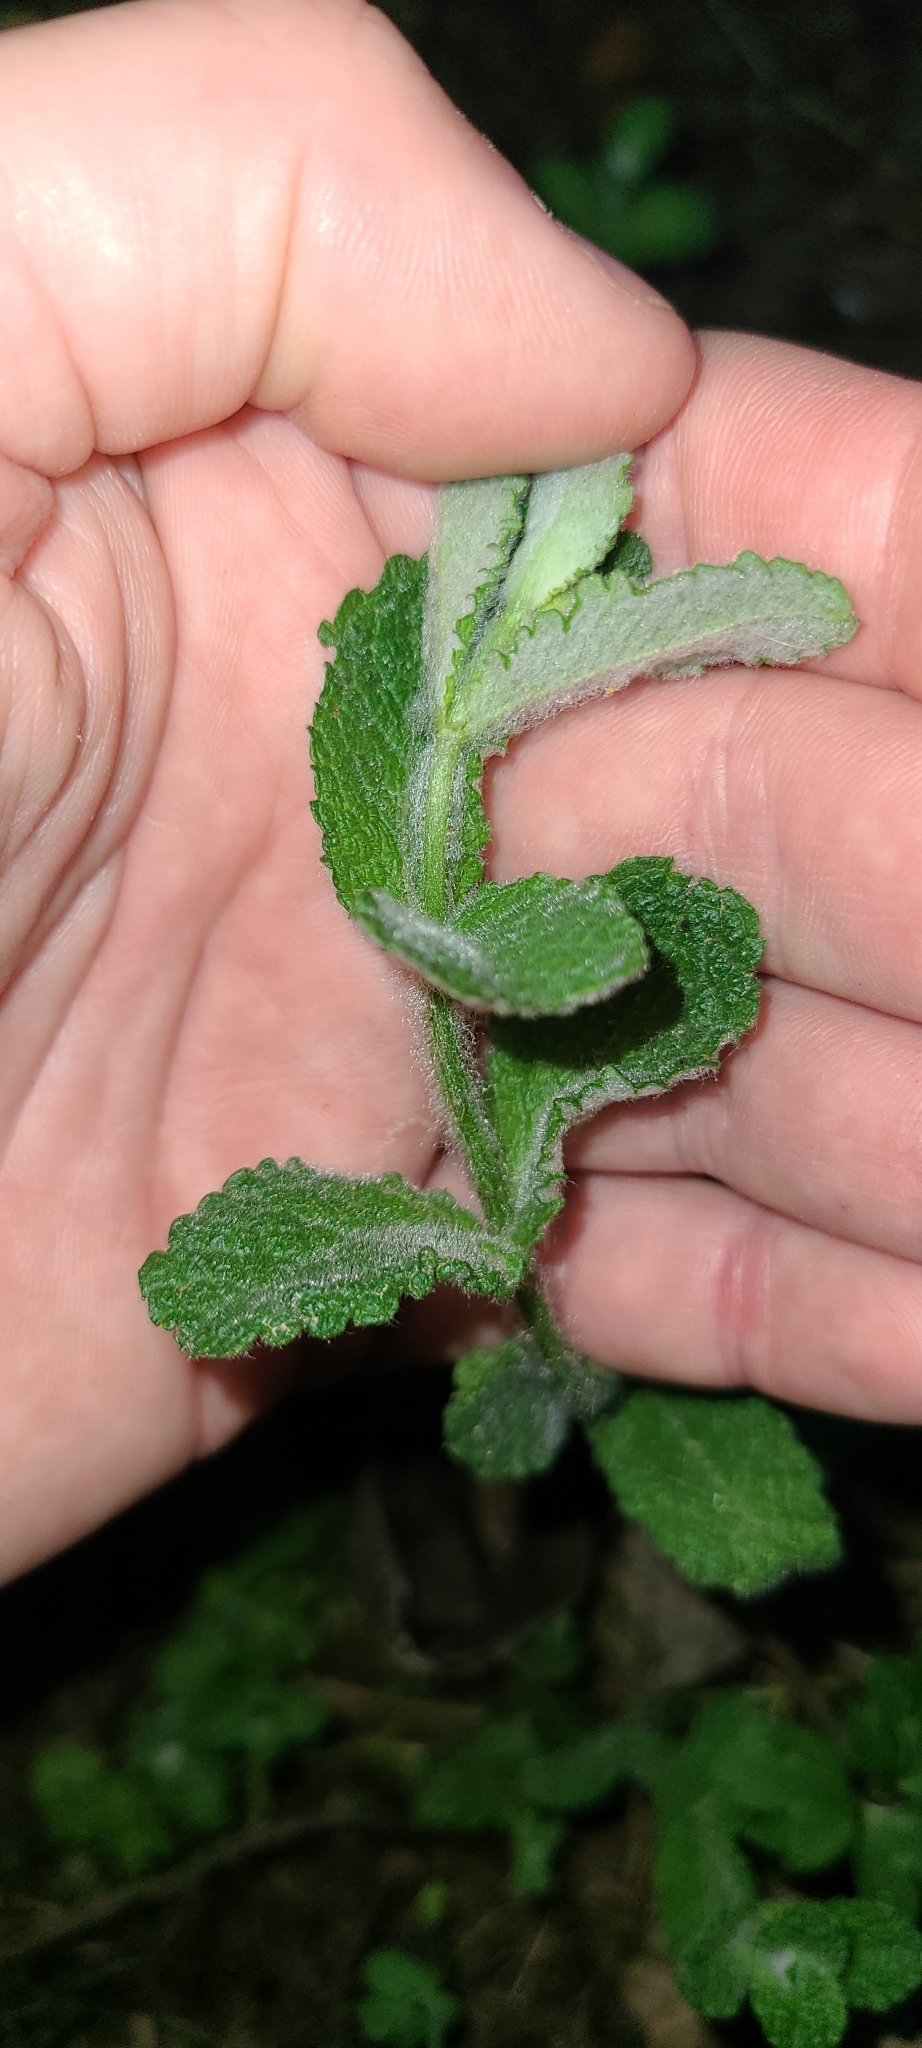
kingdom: Plantae
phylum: Tracheophyta
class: Magnoliopsida
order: Lamiales
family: Lamiaceae
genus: Mentha
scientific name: Mentha suaveolens
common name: Apple mint
